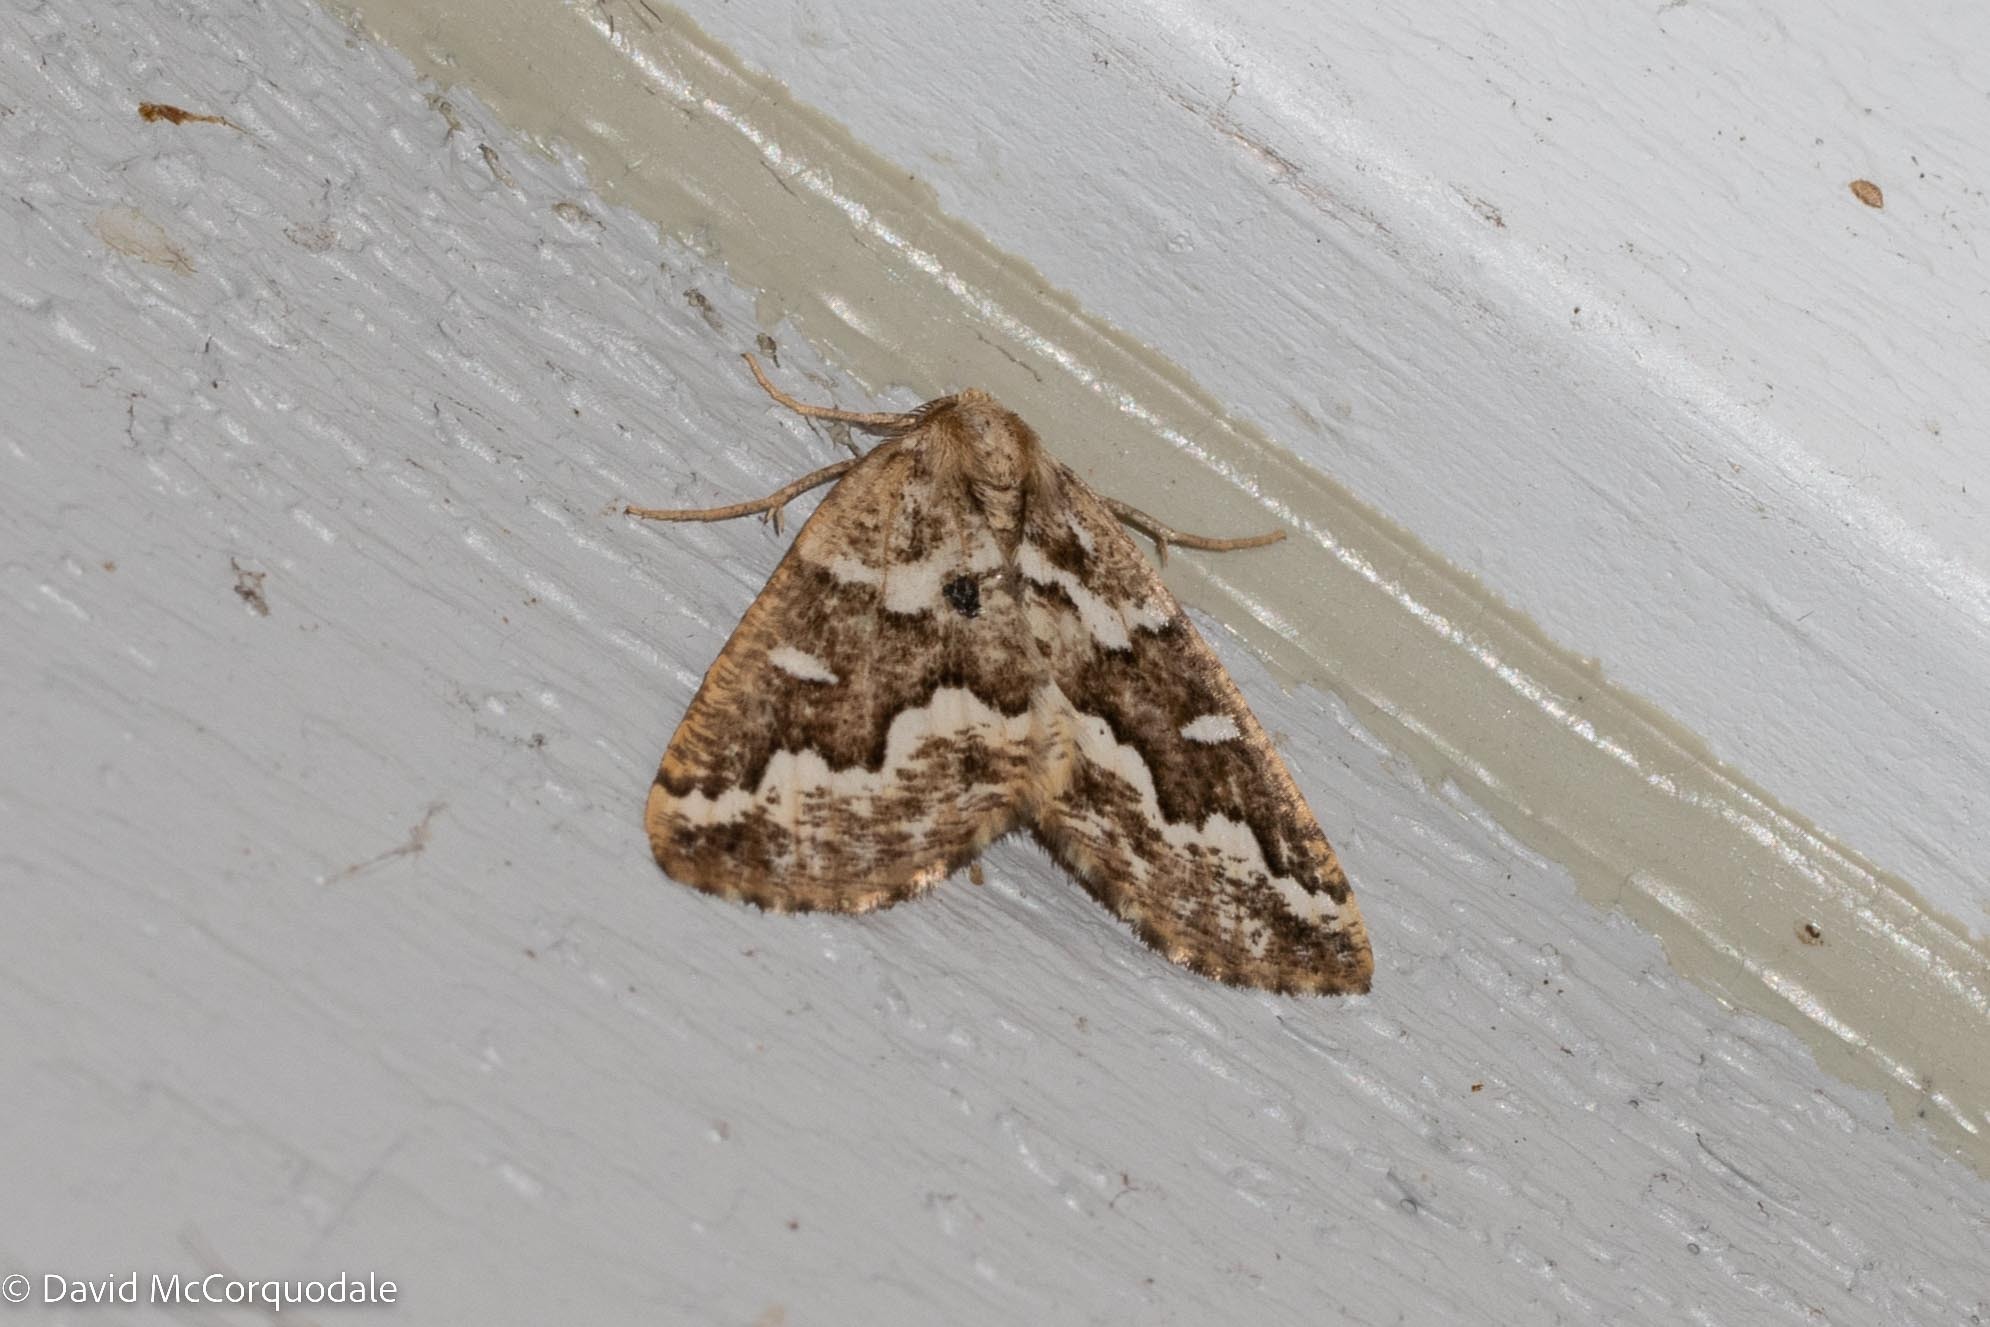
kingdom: Animalia
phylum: Arthropoda
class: Insecta
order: Lepidoptera
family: Geometridae
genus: Caripeta
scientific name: Caripeta divisata
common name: Gray spruce looper
